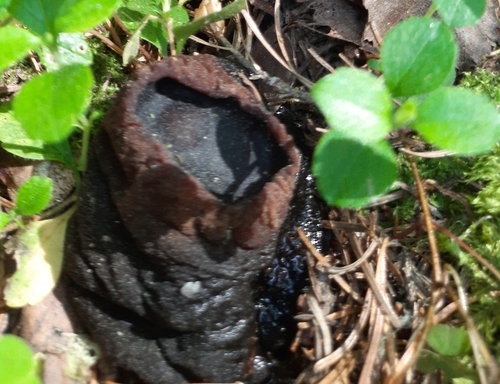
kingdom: Fungi
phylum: Ascomycota
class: Pezizomycetes
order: Pezizales
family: Sarcosomataceae
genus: Sarcosoma
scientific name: Sarcosoma globosum
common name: Charred-pancake cup
